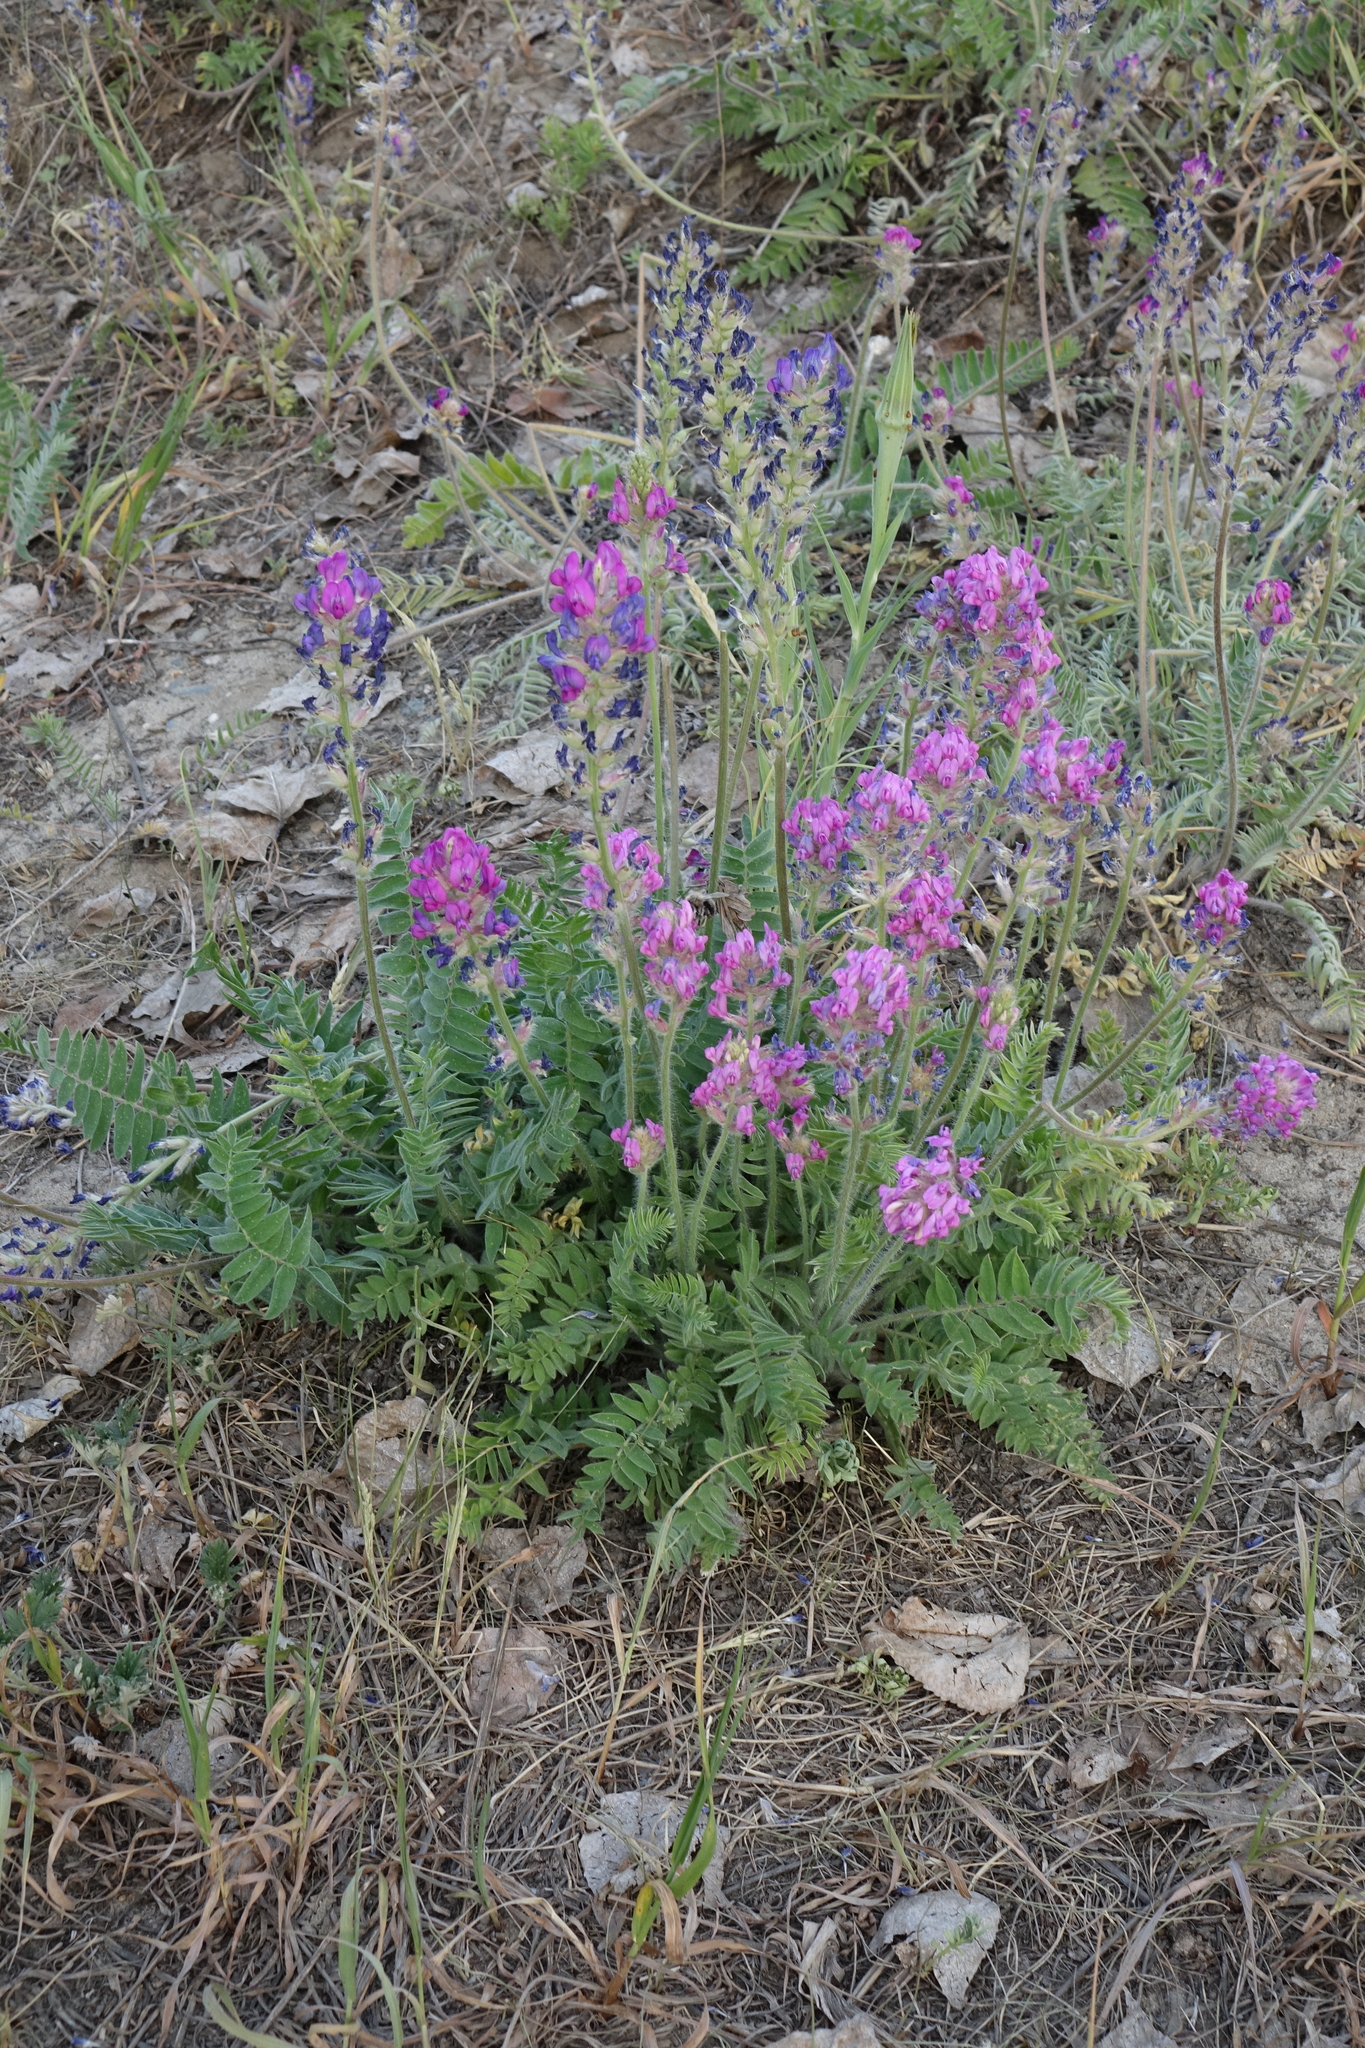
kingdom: Plantae
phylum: Tracheophyta
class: Magnoliopsida
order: Fabales
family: Fabaceae
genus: Oxytropis
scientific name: Oxytropis campanulata
